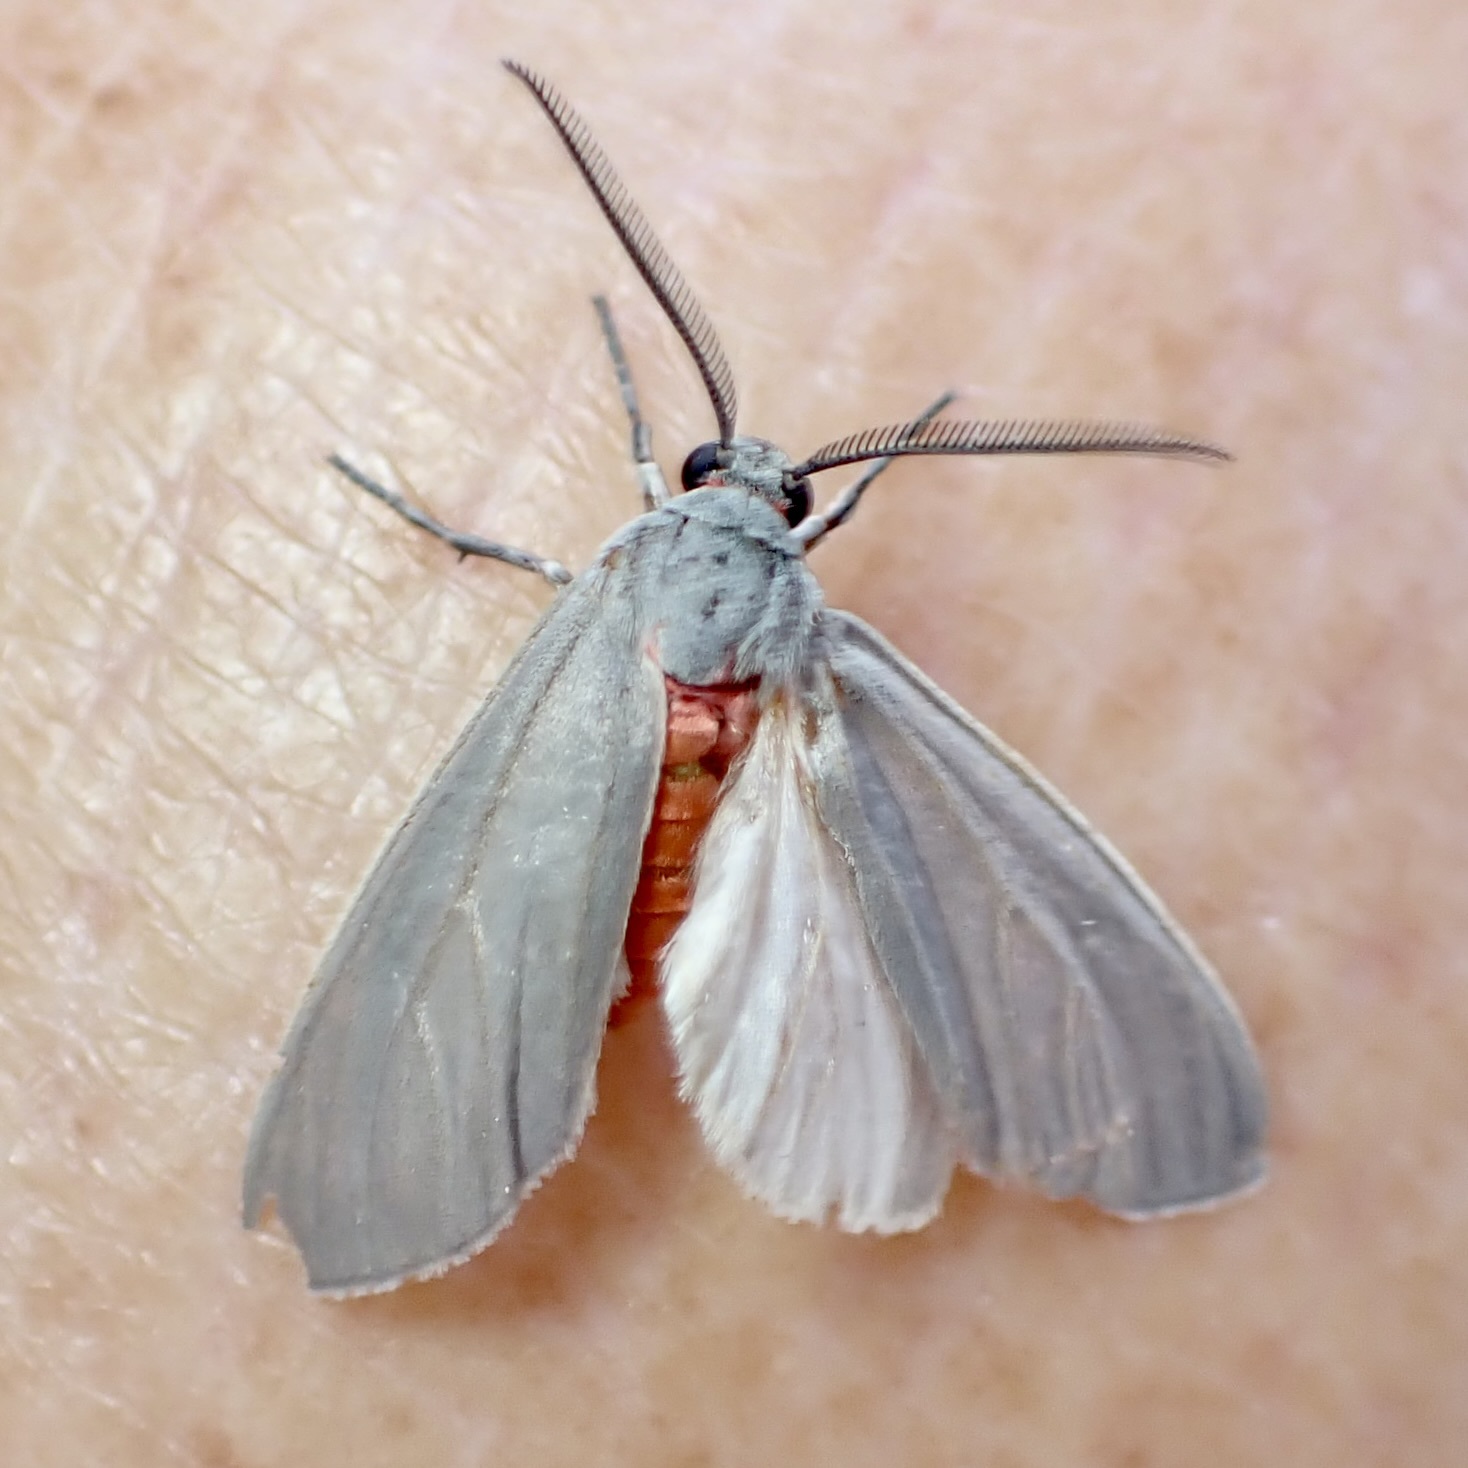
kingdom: Animalia
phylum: Arthropoda
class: Insecta
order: Lepidoptera
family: Erebidae
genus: Pygarctia
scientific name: Pygarctia murina
